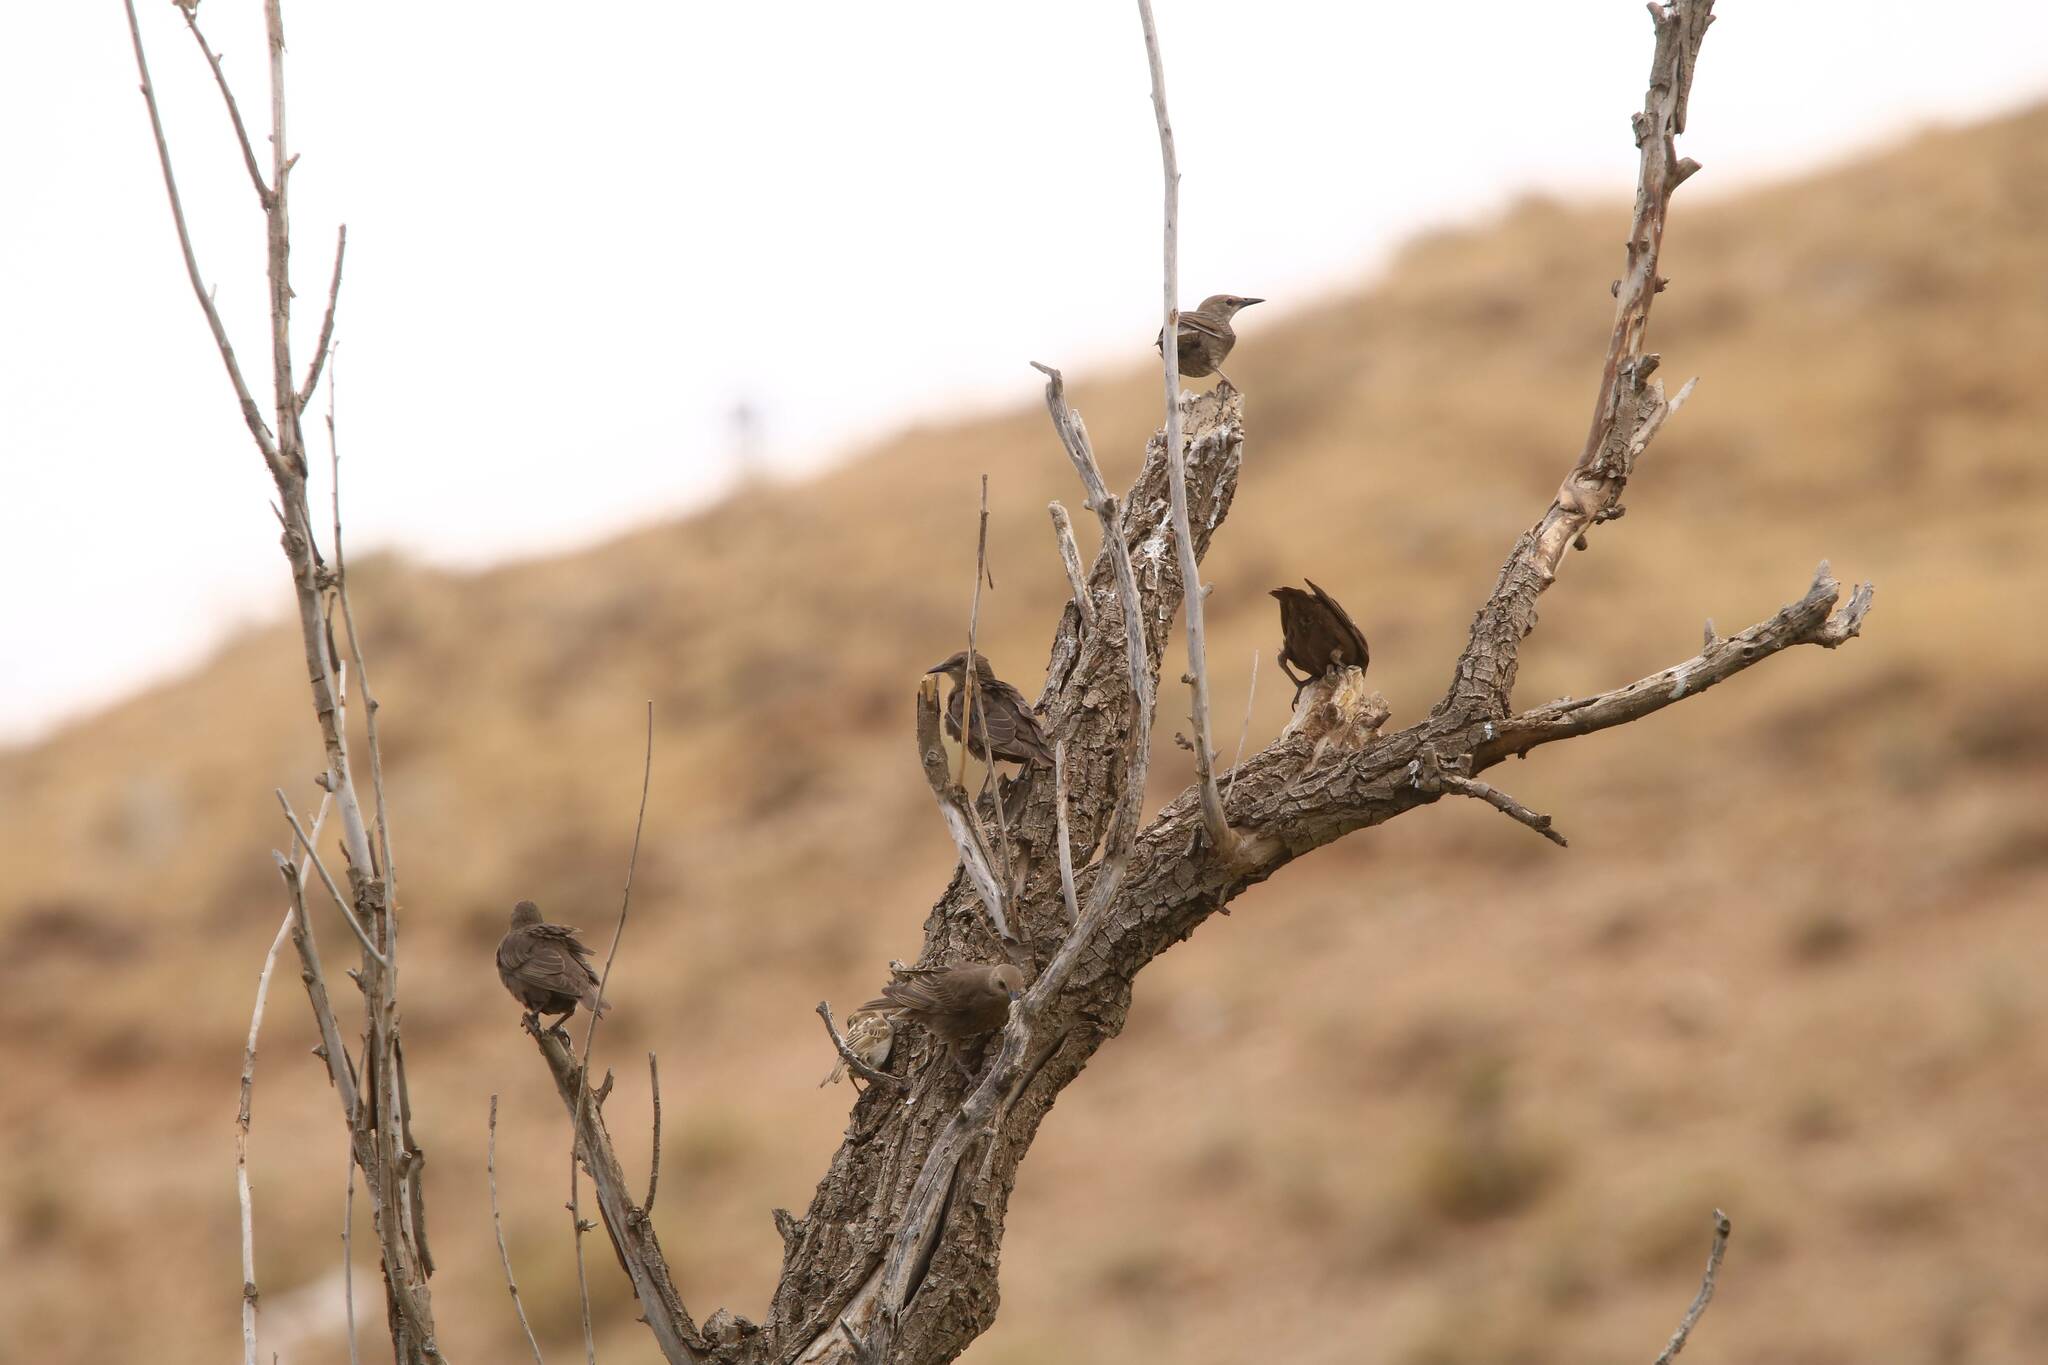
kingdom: Animalia
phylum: Chordata
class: Aves
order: Passeriformes
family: Sturnidae
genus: Sturnus
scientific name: Sturnus unicolor
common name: Spotless starling
